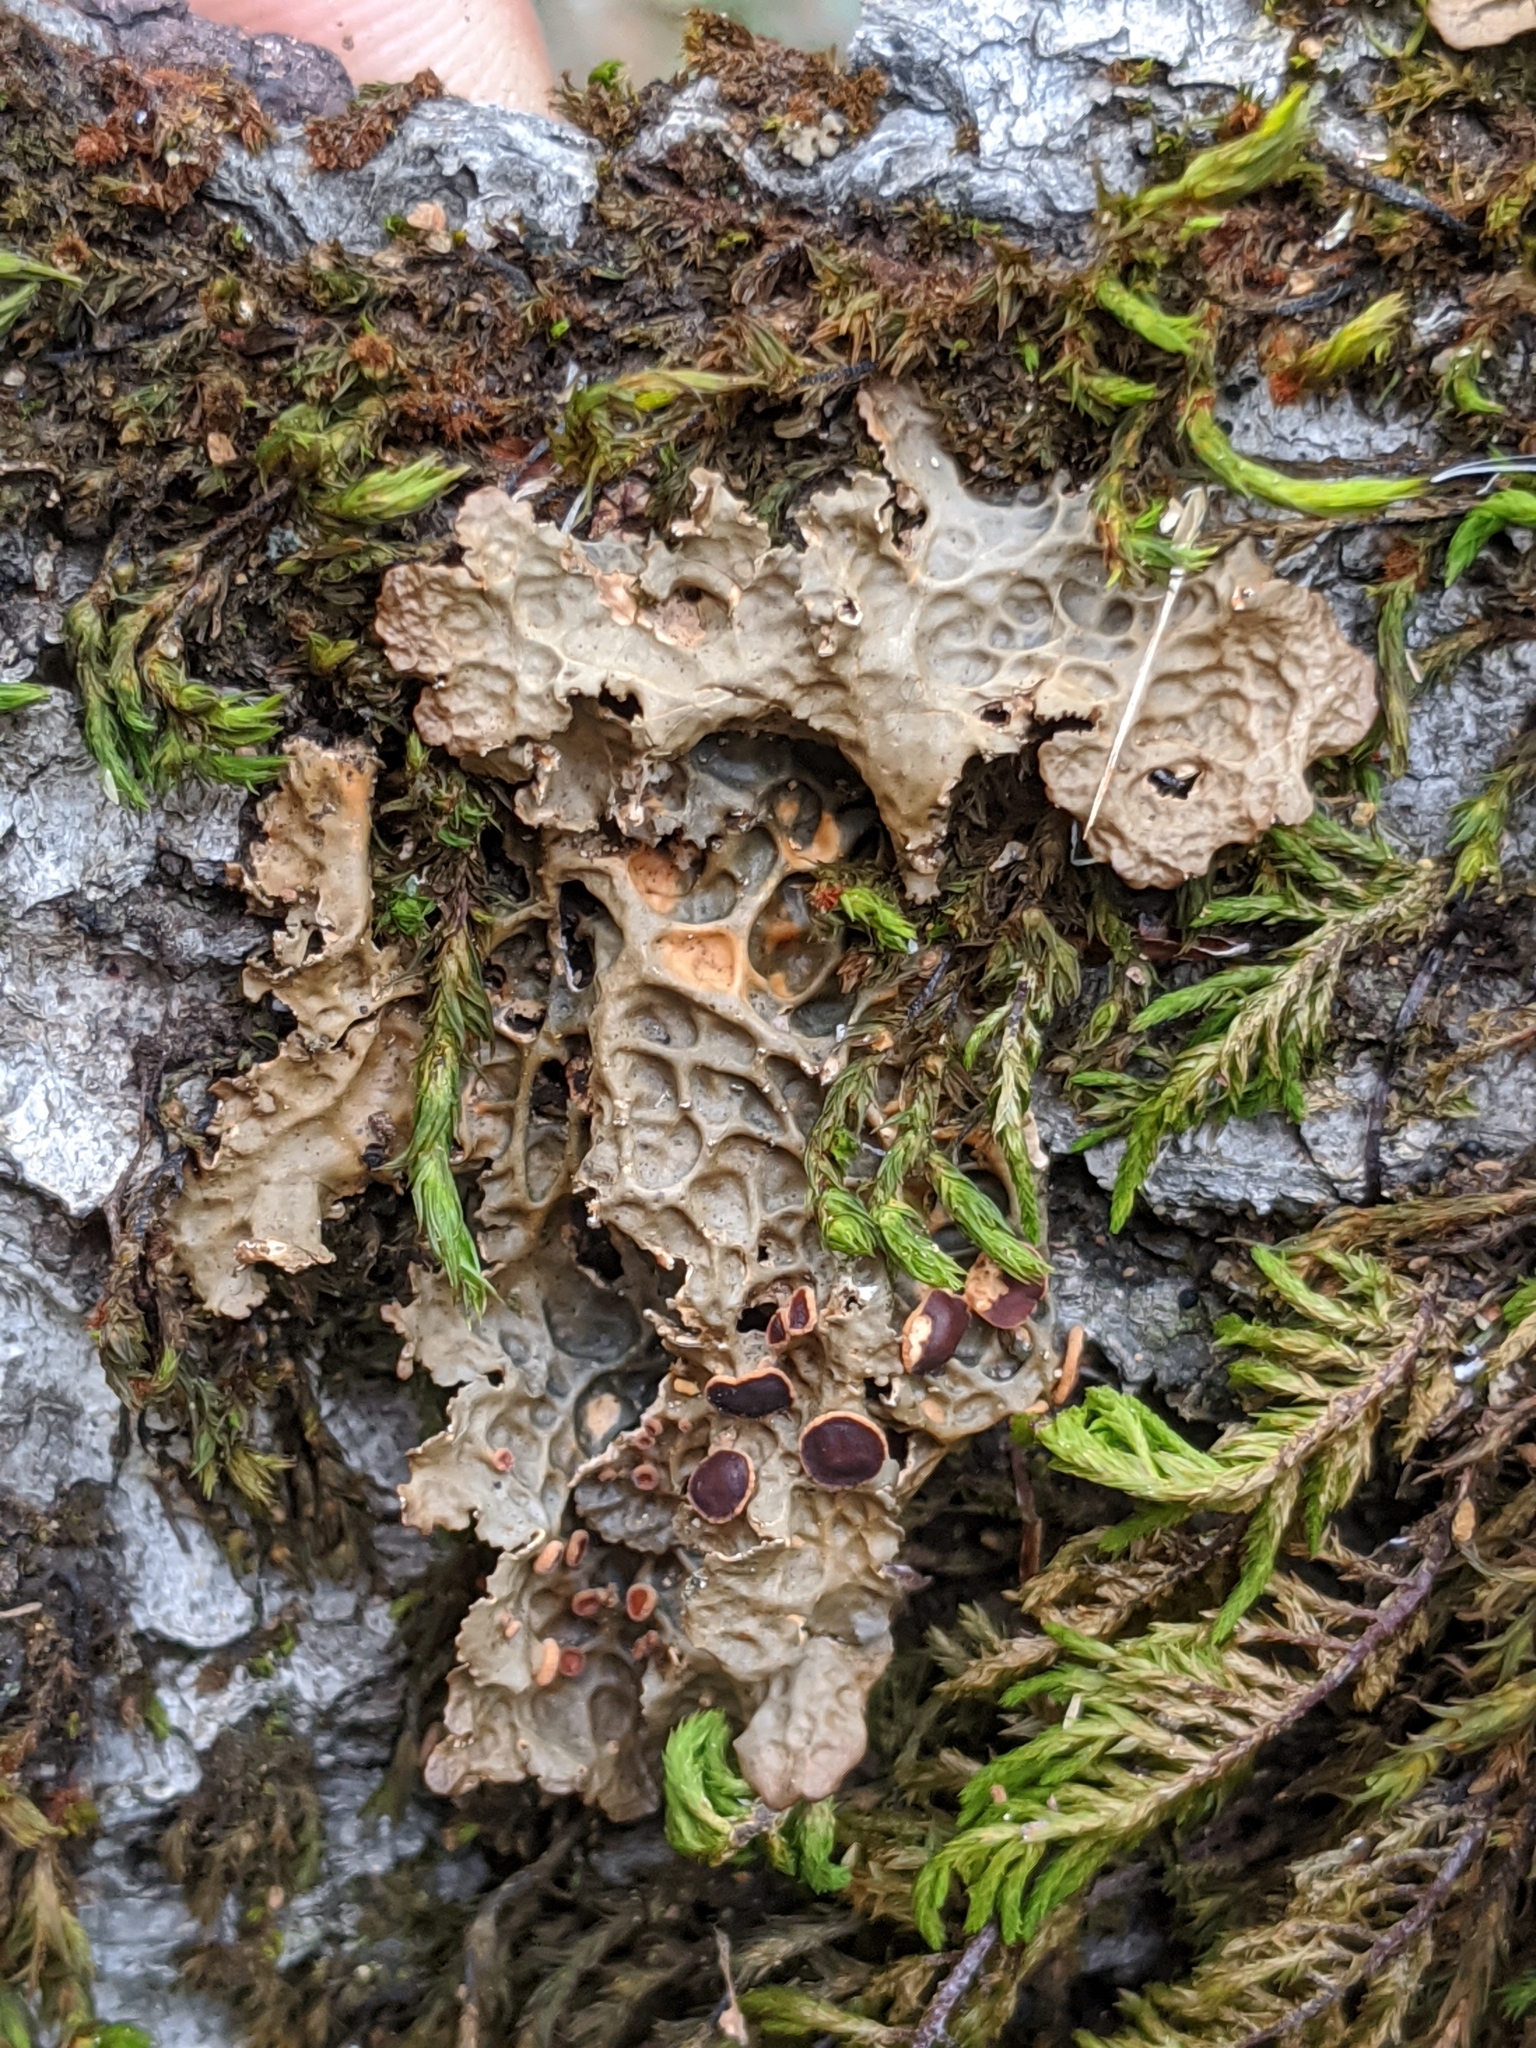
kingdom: Fungi
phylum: Ascomycota
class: Lecanoromycetes
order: Peltigerales
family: Lobariaceae
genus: Lobaria
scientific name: Lobaria anthraspis
